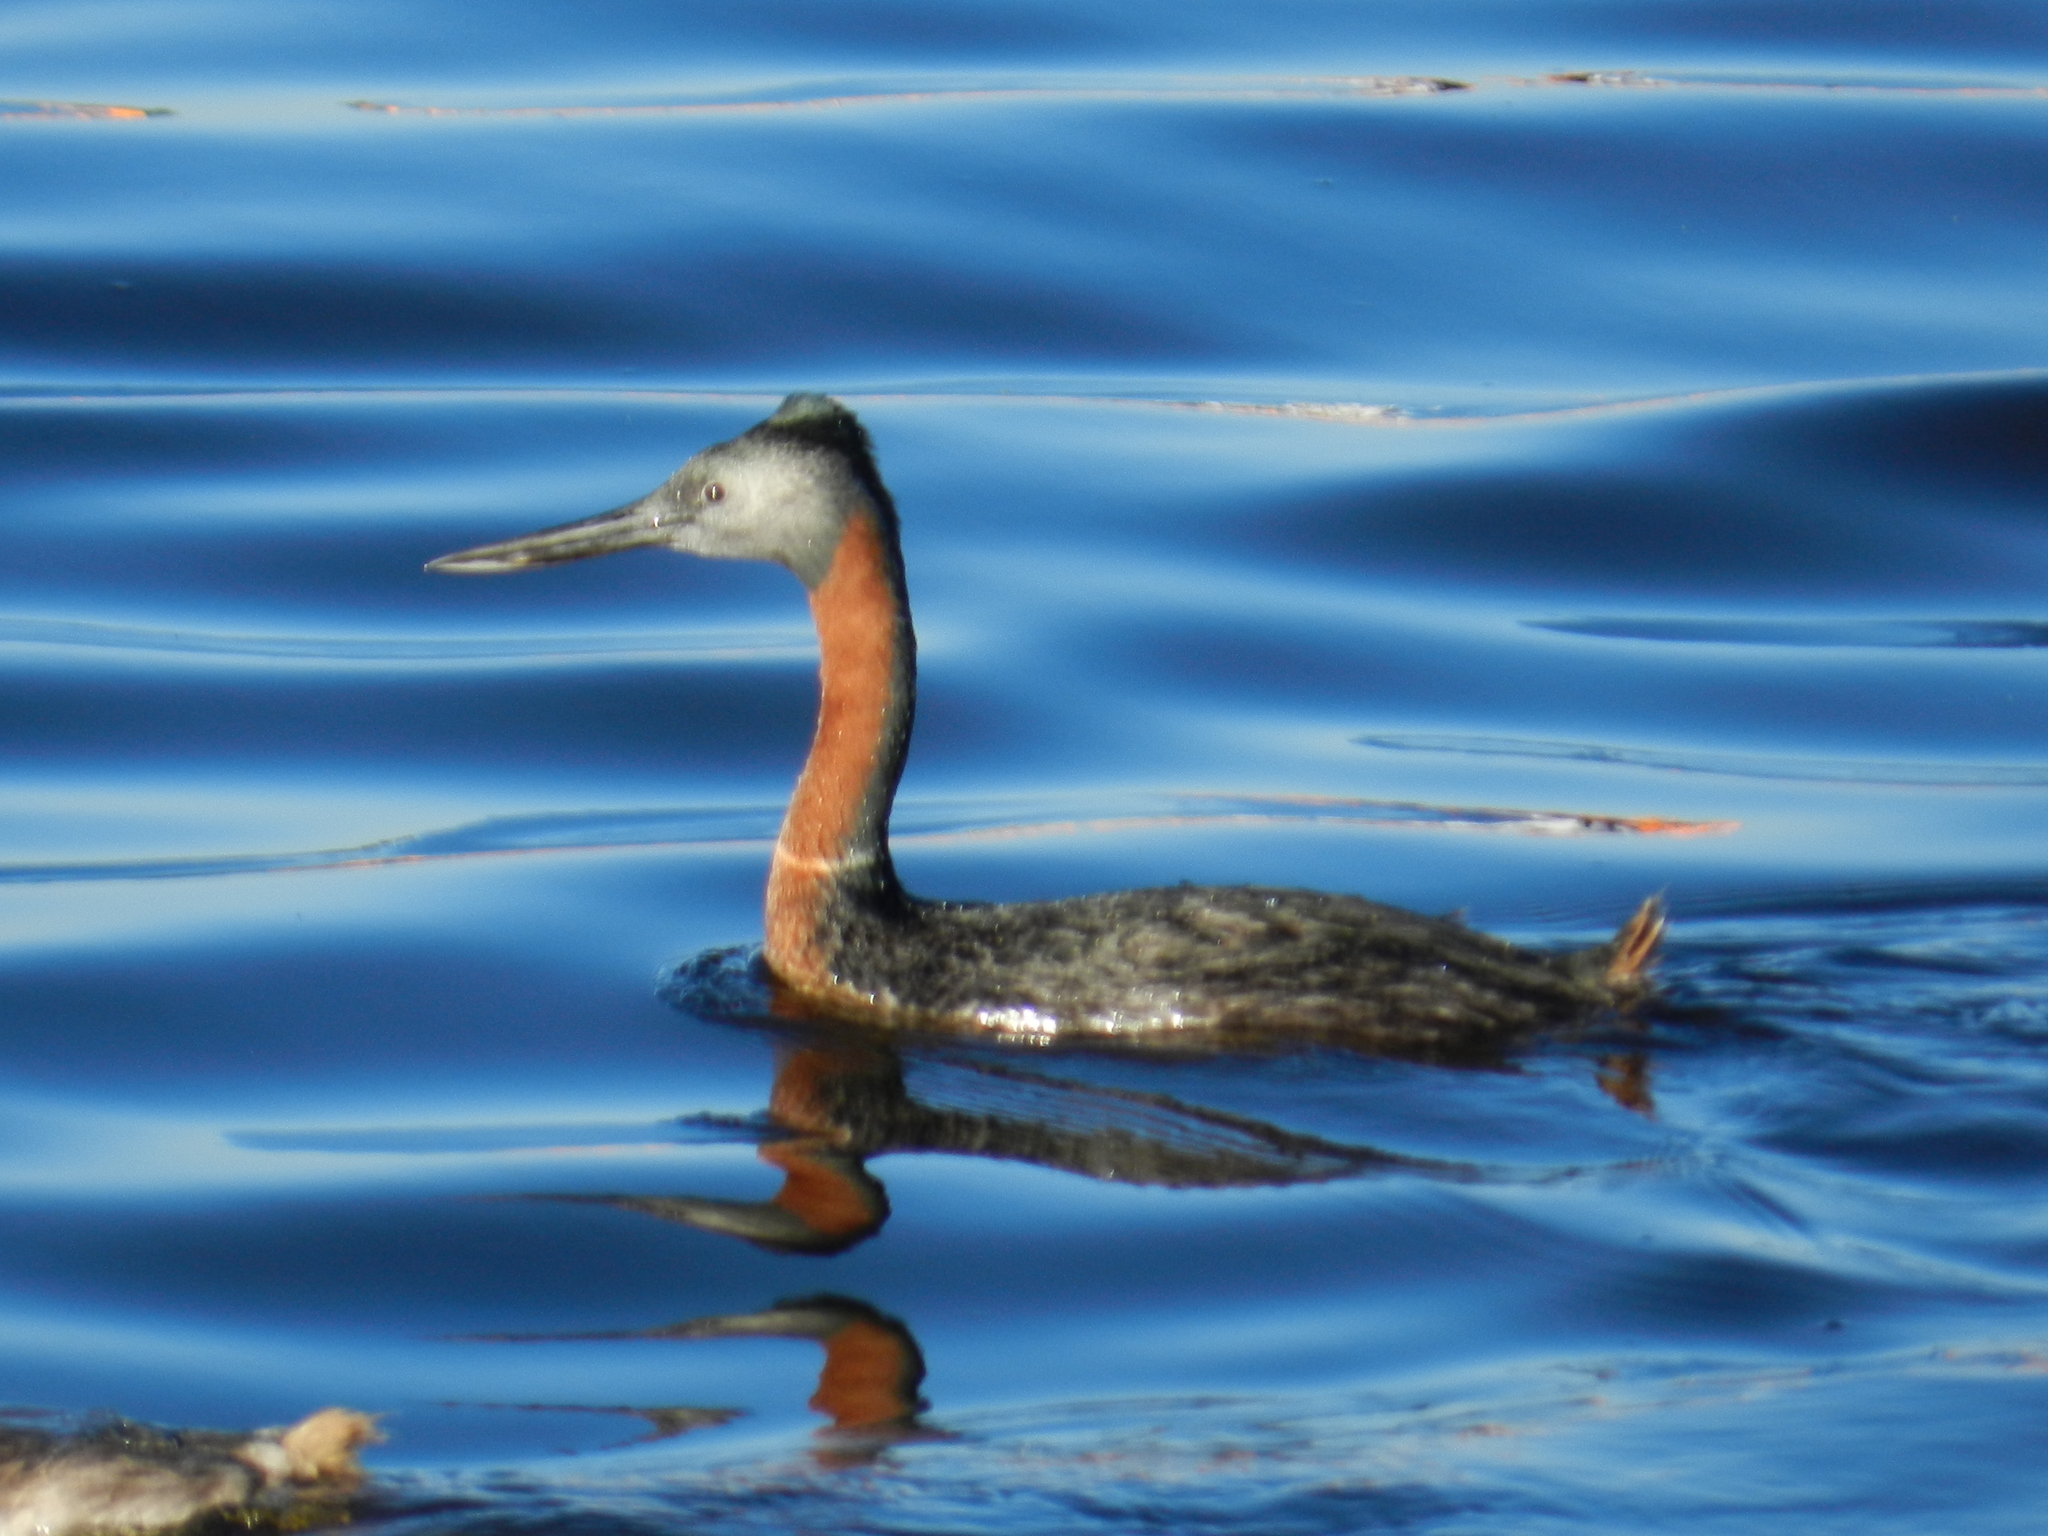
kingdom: Animalia
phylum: Chordata
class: Aves
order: Podicipediformes
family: Podicipedidae
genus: Podiceps
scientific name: Podiceps major
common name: Great grebe
